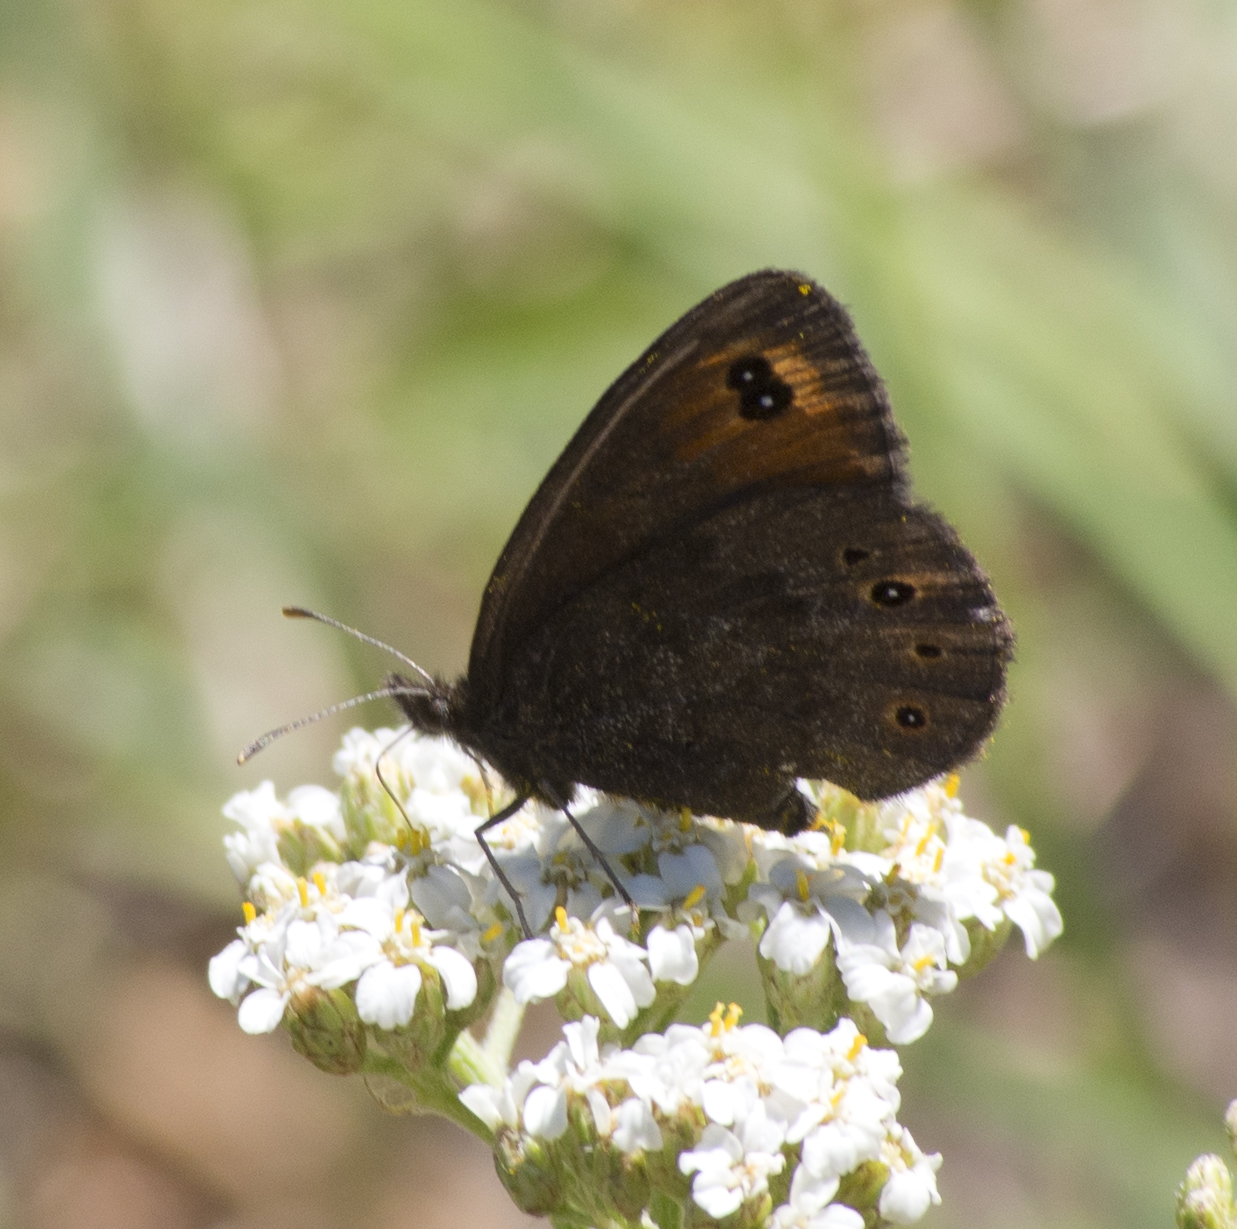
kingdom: Animalia
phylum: Arthropoda
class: Insecta
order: Lepidoptera
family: Nymphalidae
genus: Erebia
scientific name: Erebia epipsodea
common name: Common alpine
